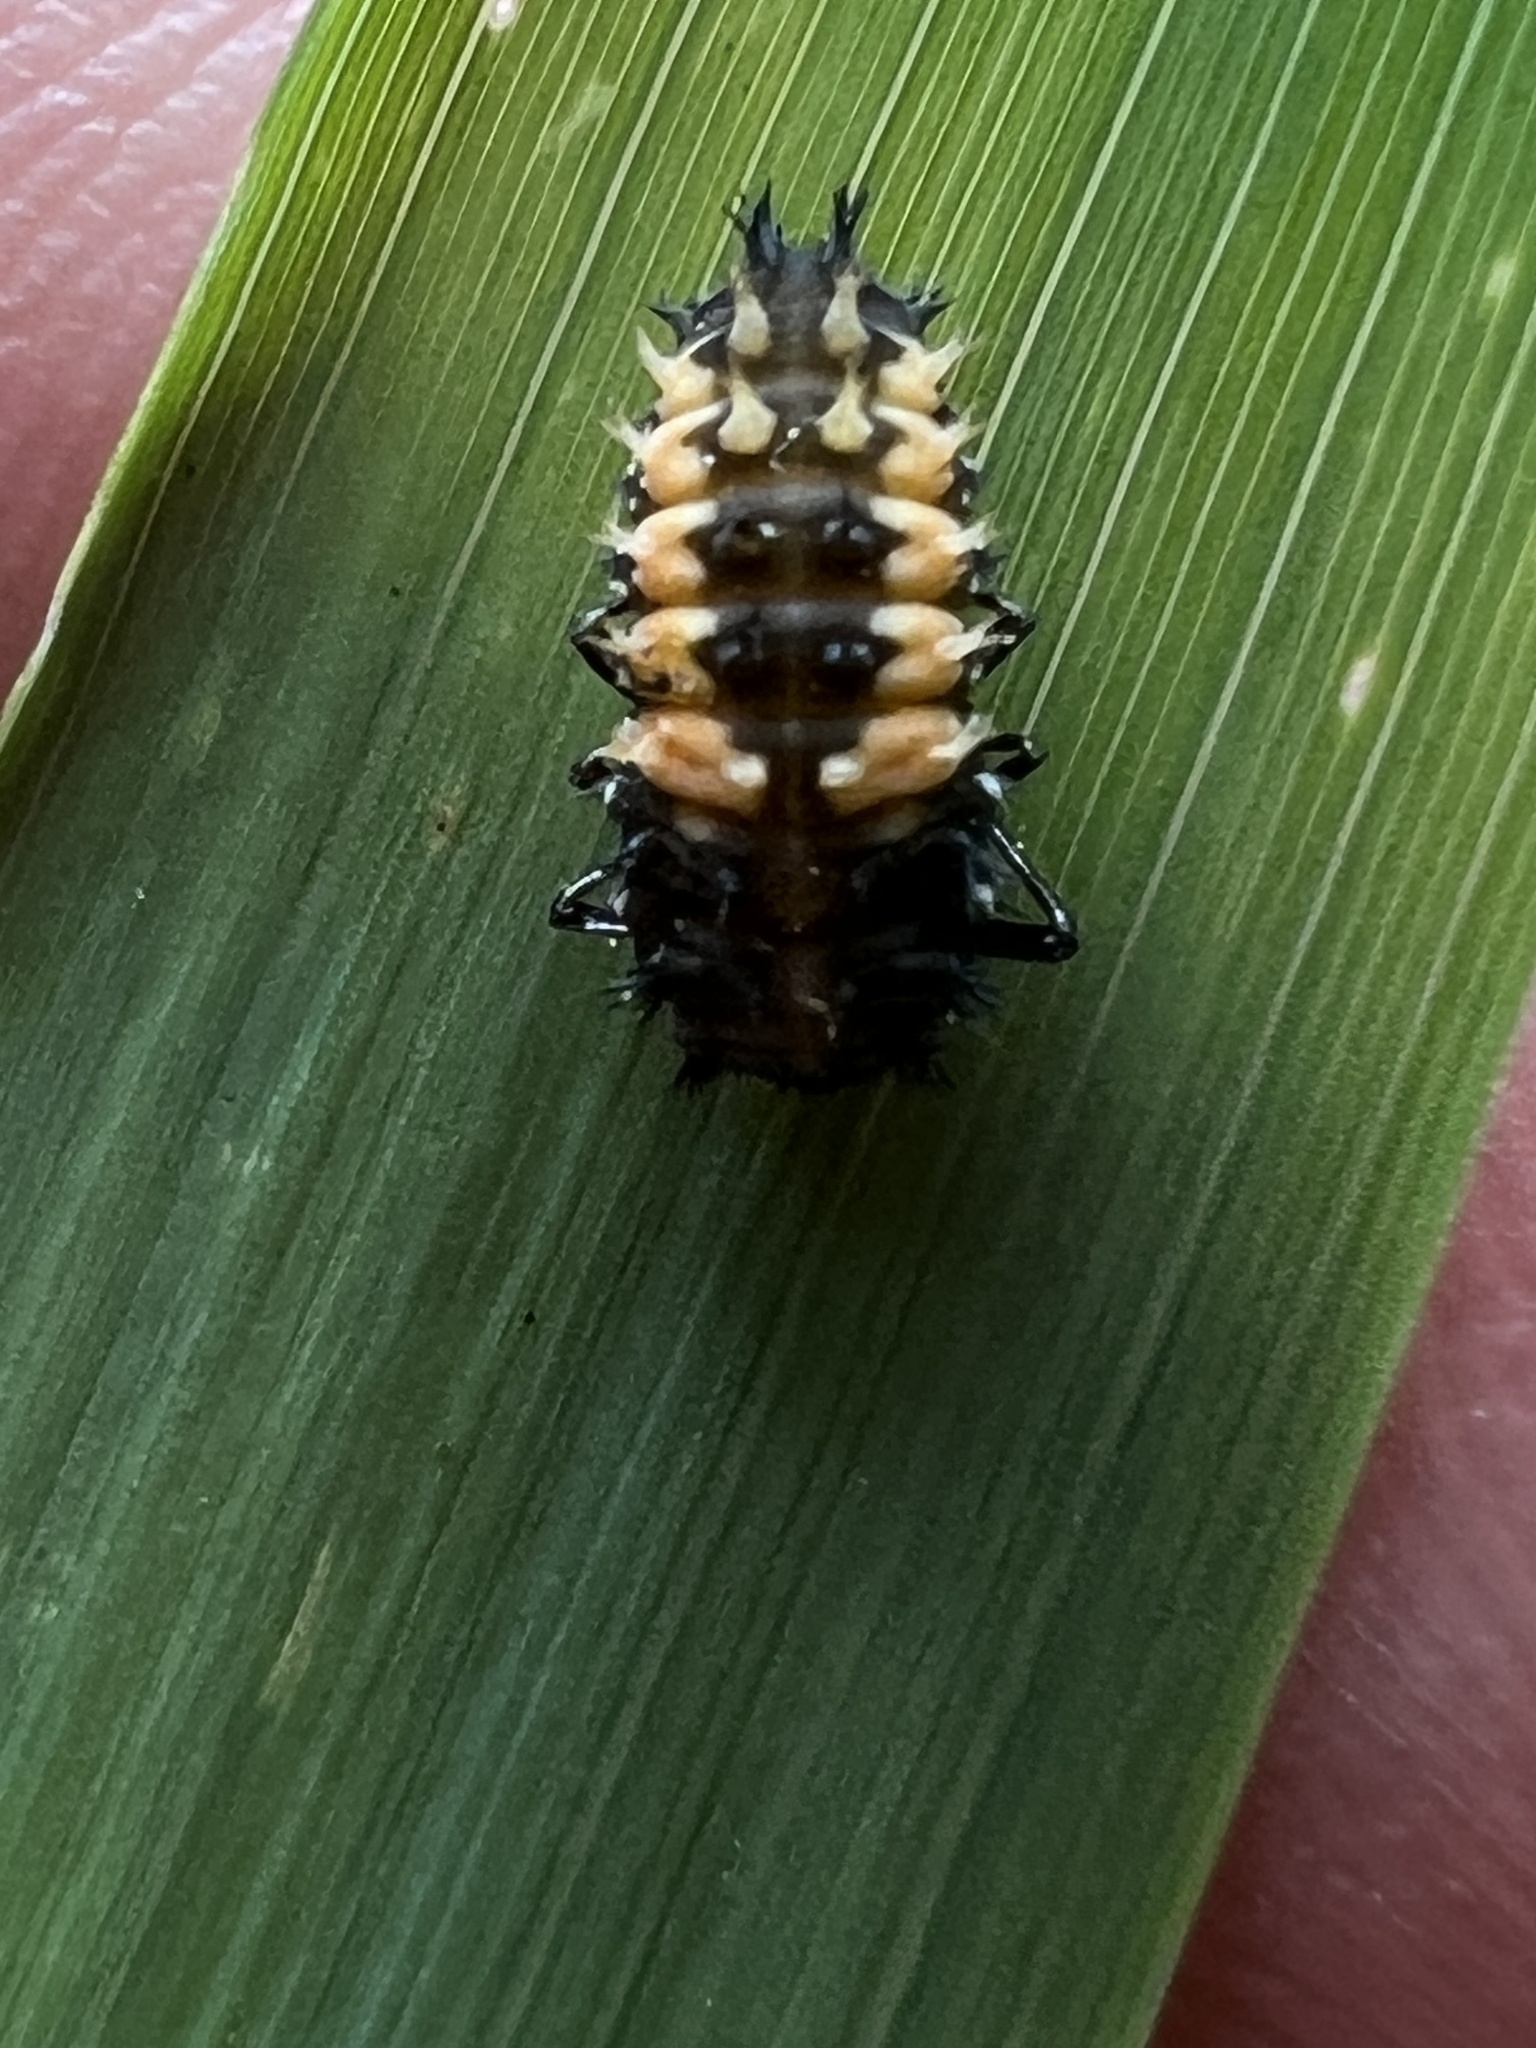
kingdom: Animalia
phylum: Arthropoda
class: Insecta
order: Coleoptera
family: Coccinellidae
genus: Harmonia
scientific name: Harmonia axyridis
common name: Harlequin ladybird
